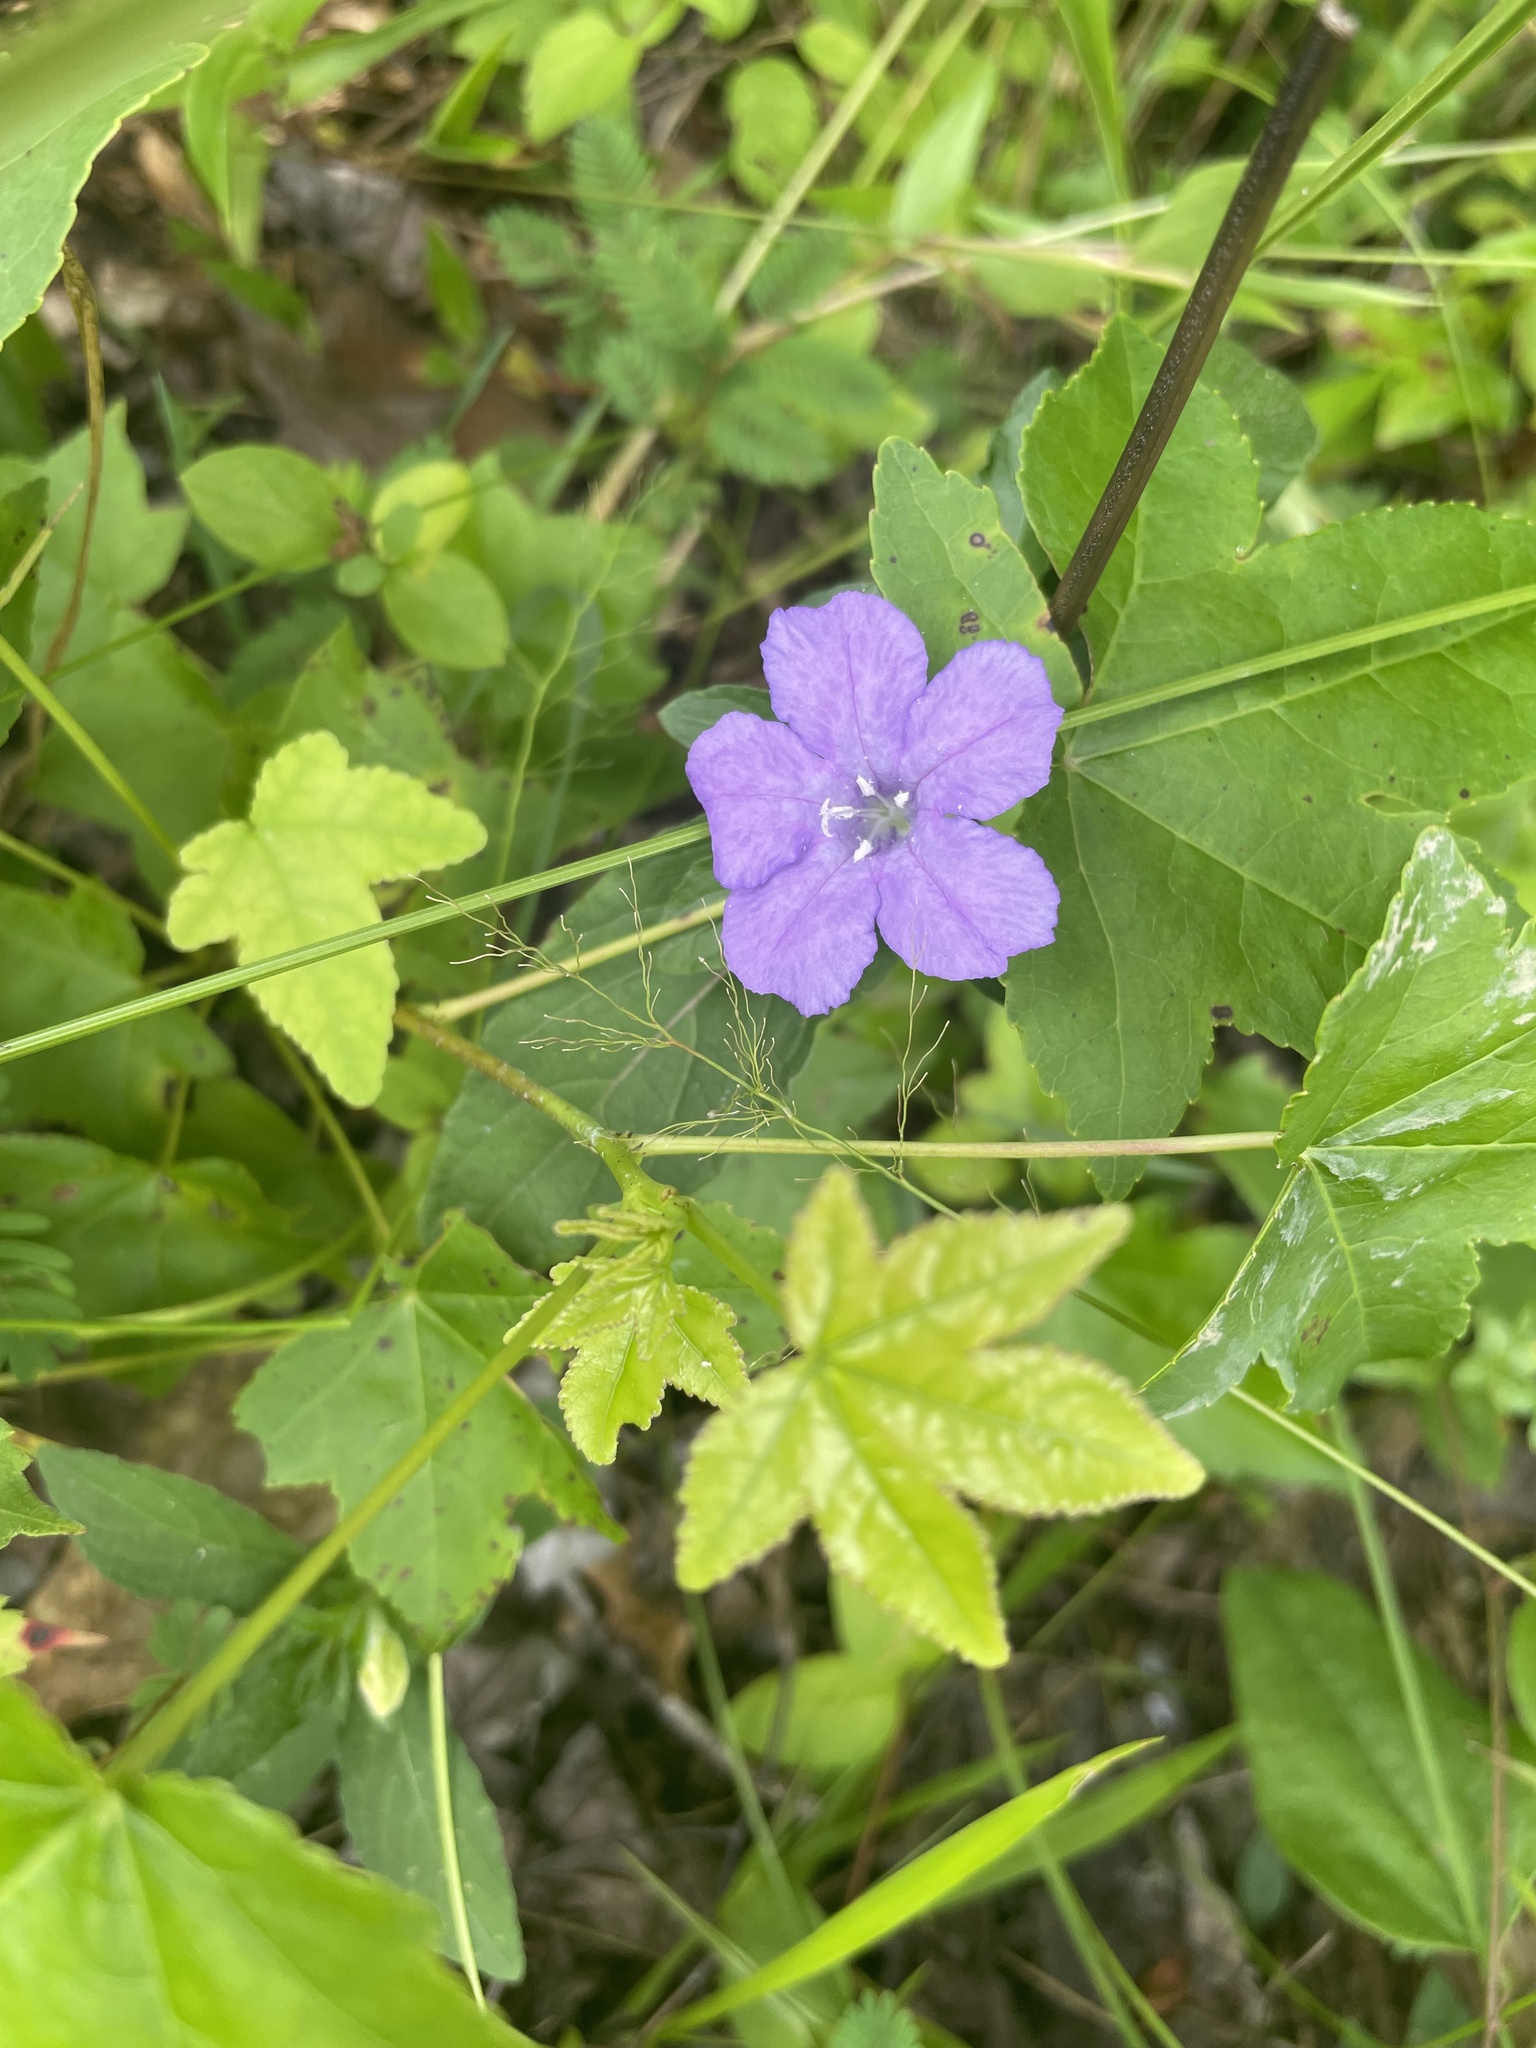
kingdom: Plantae
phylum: Tracheophyta
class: Magnoliopsida
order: Lamiales
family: Acanthaceae
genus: Ruellia
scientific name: Ruellia caroliniensis
